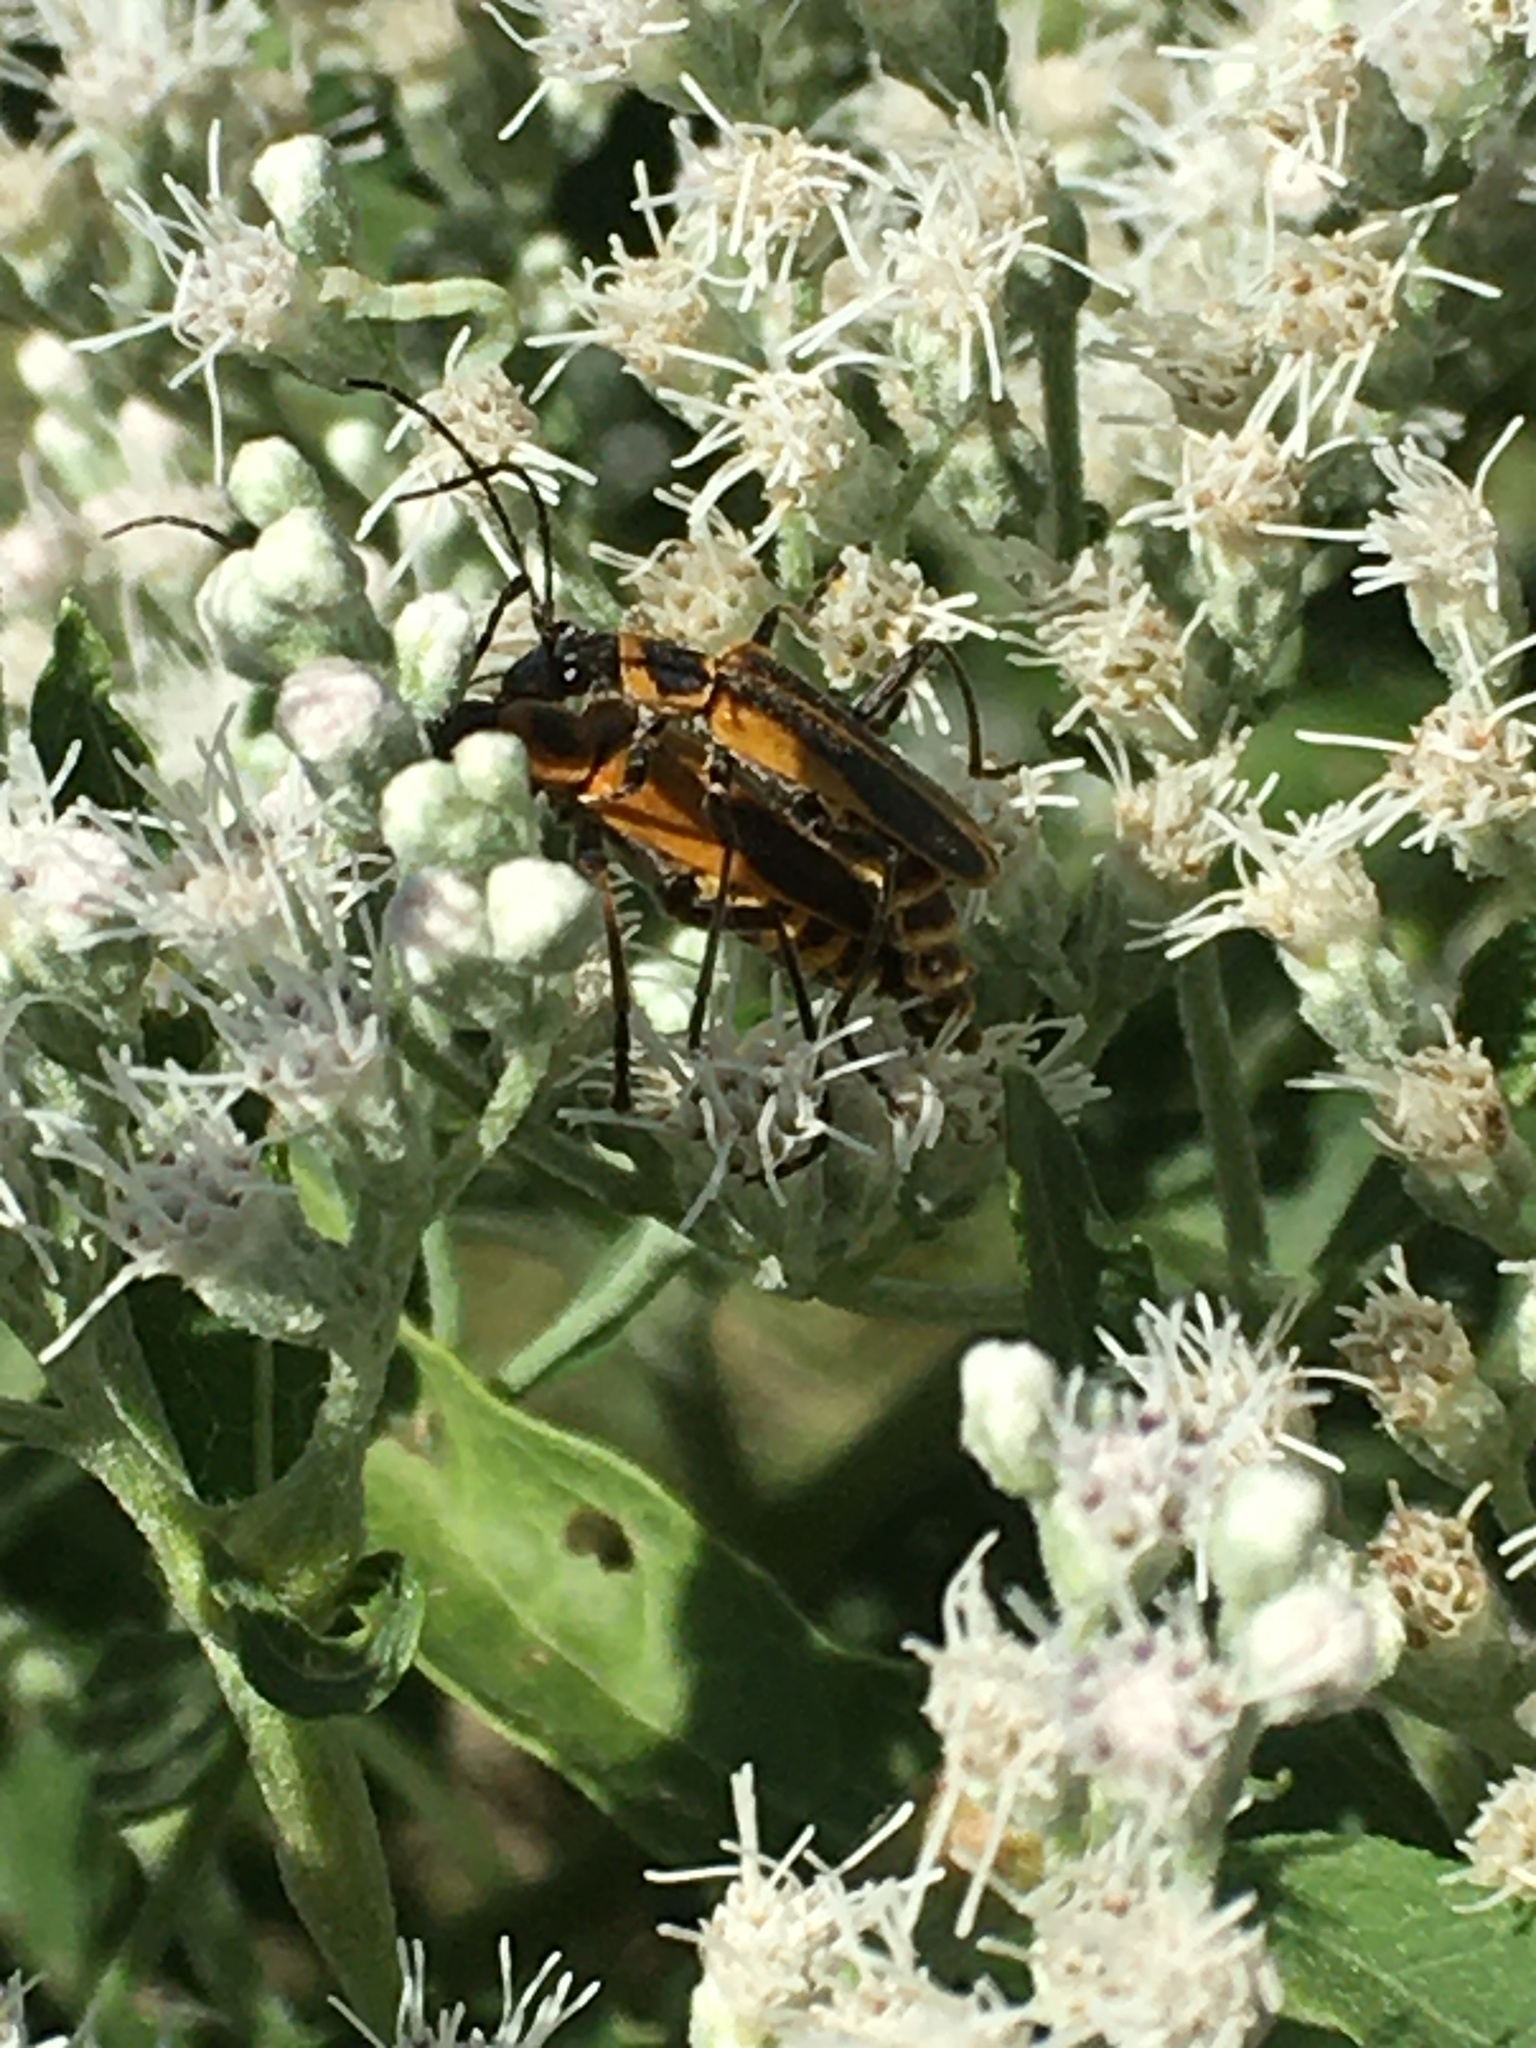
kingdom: Animalia
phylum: Arthropoda
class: Insecta
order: Coleoptera
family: Cantharidae
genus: Chauliognathus
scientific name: Chauliognathus pensylvanicus
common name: Goldenrod soldier beetle
